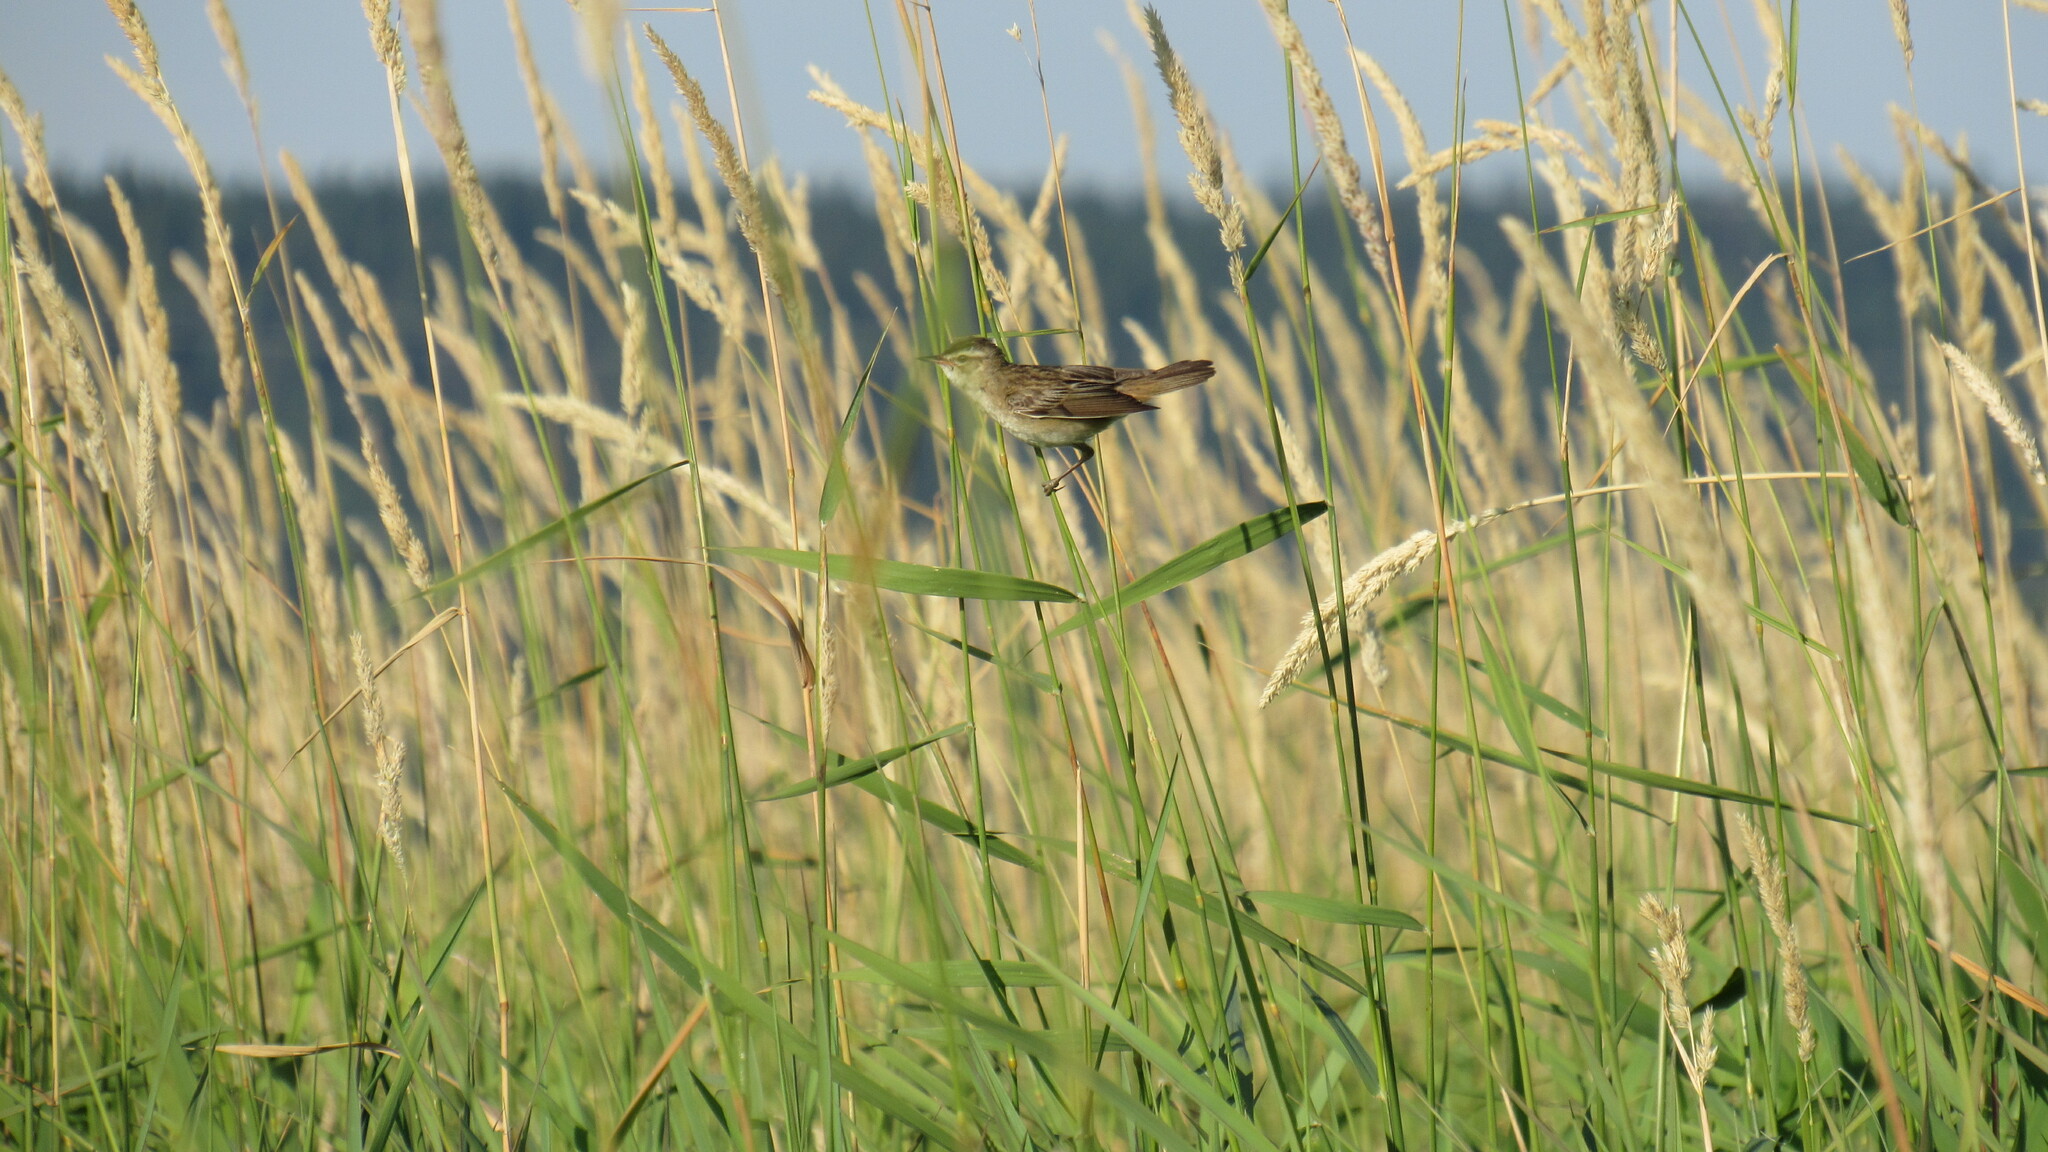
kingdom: Animalia
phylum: Chordata
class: Aves
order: Passeriformes
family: Acrocephalidae
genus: Acrocephalus
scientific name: Acrocephalus schoenobaenus
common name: Sedge warbler
